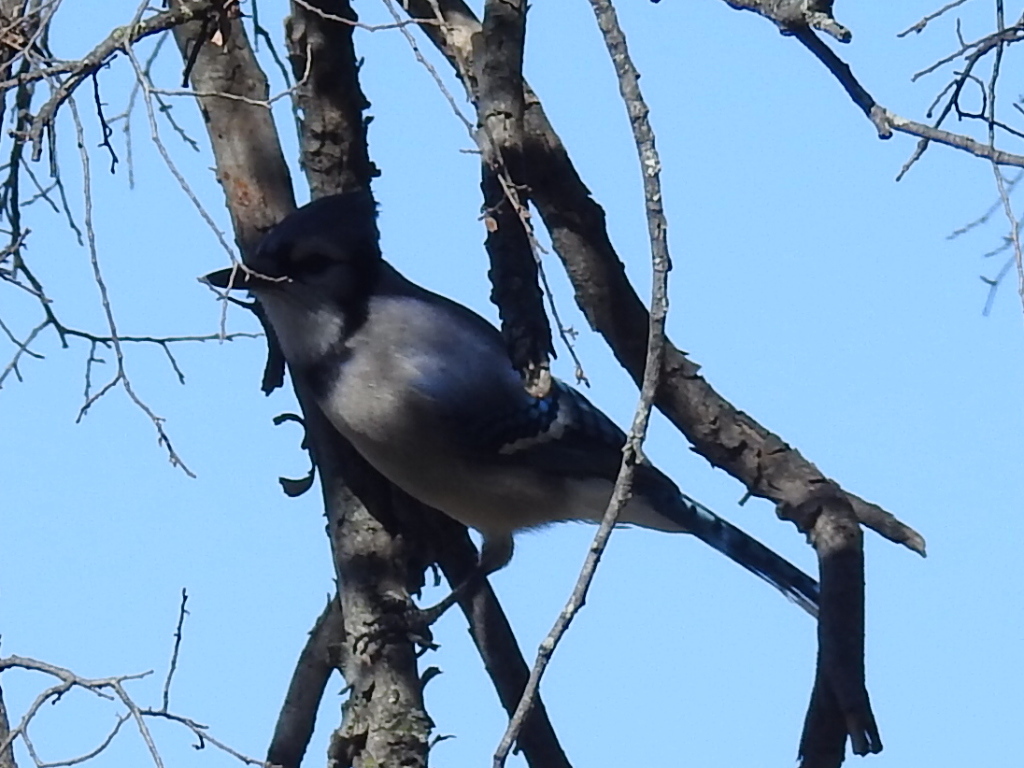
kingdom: Animalia
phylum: Chordata
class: Aves
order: Passeriformes
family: Corvidae
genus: Cyanocitta
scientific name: Cyanocitta cristata
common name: Blue jay
